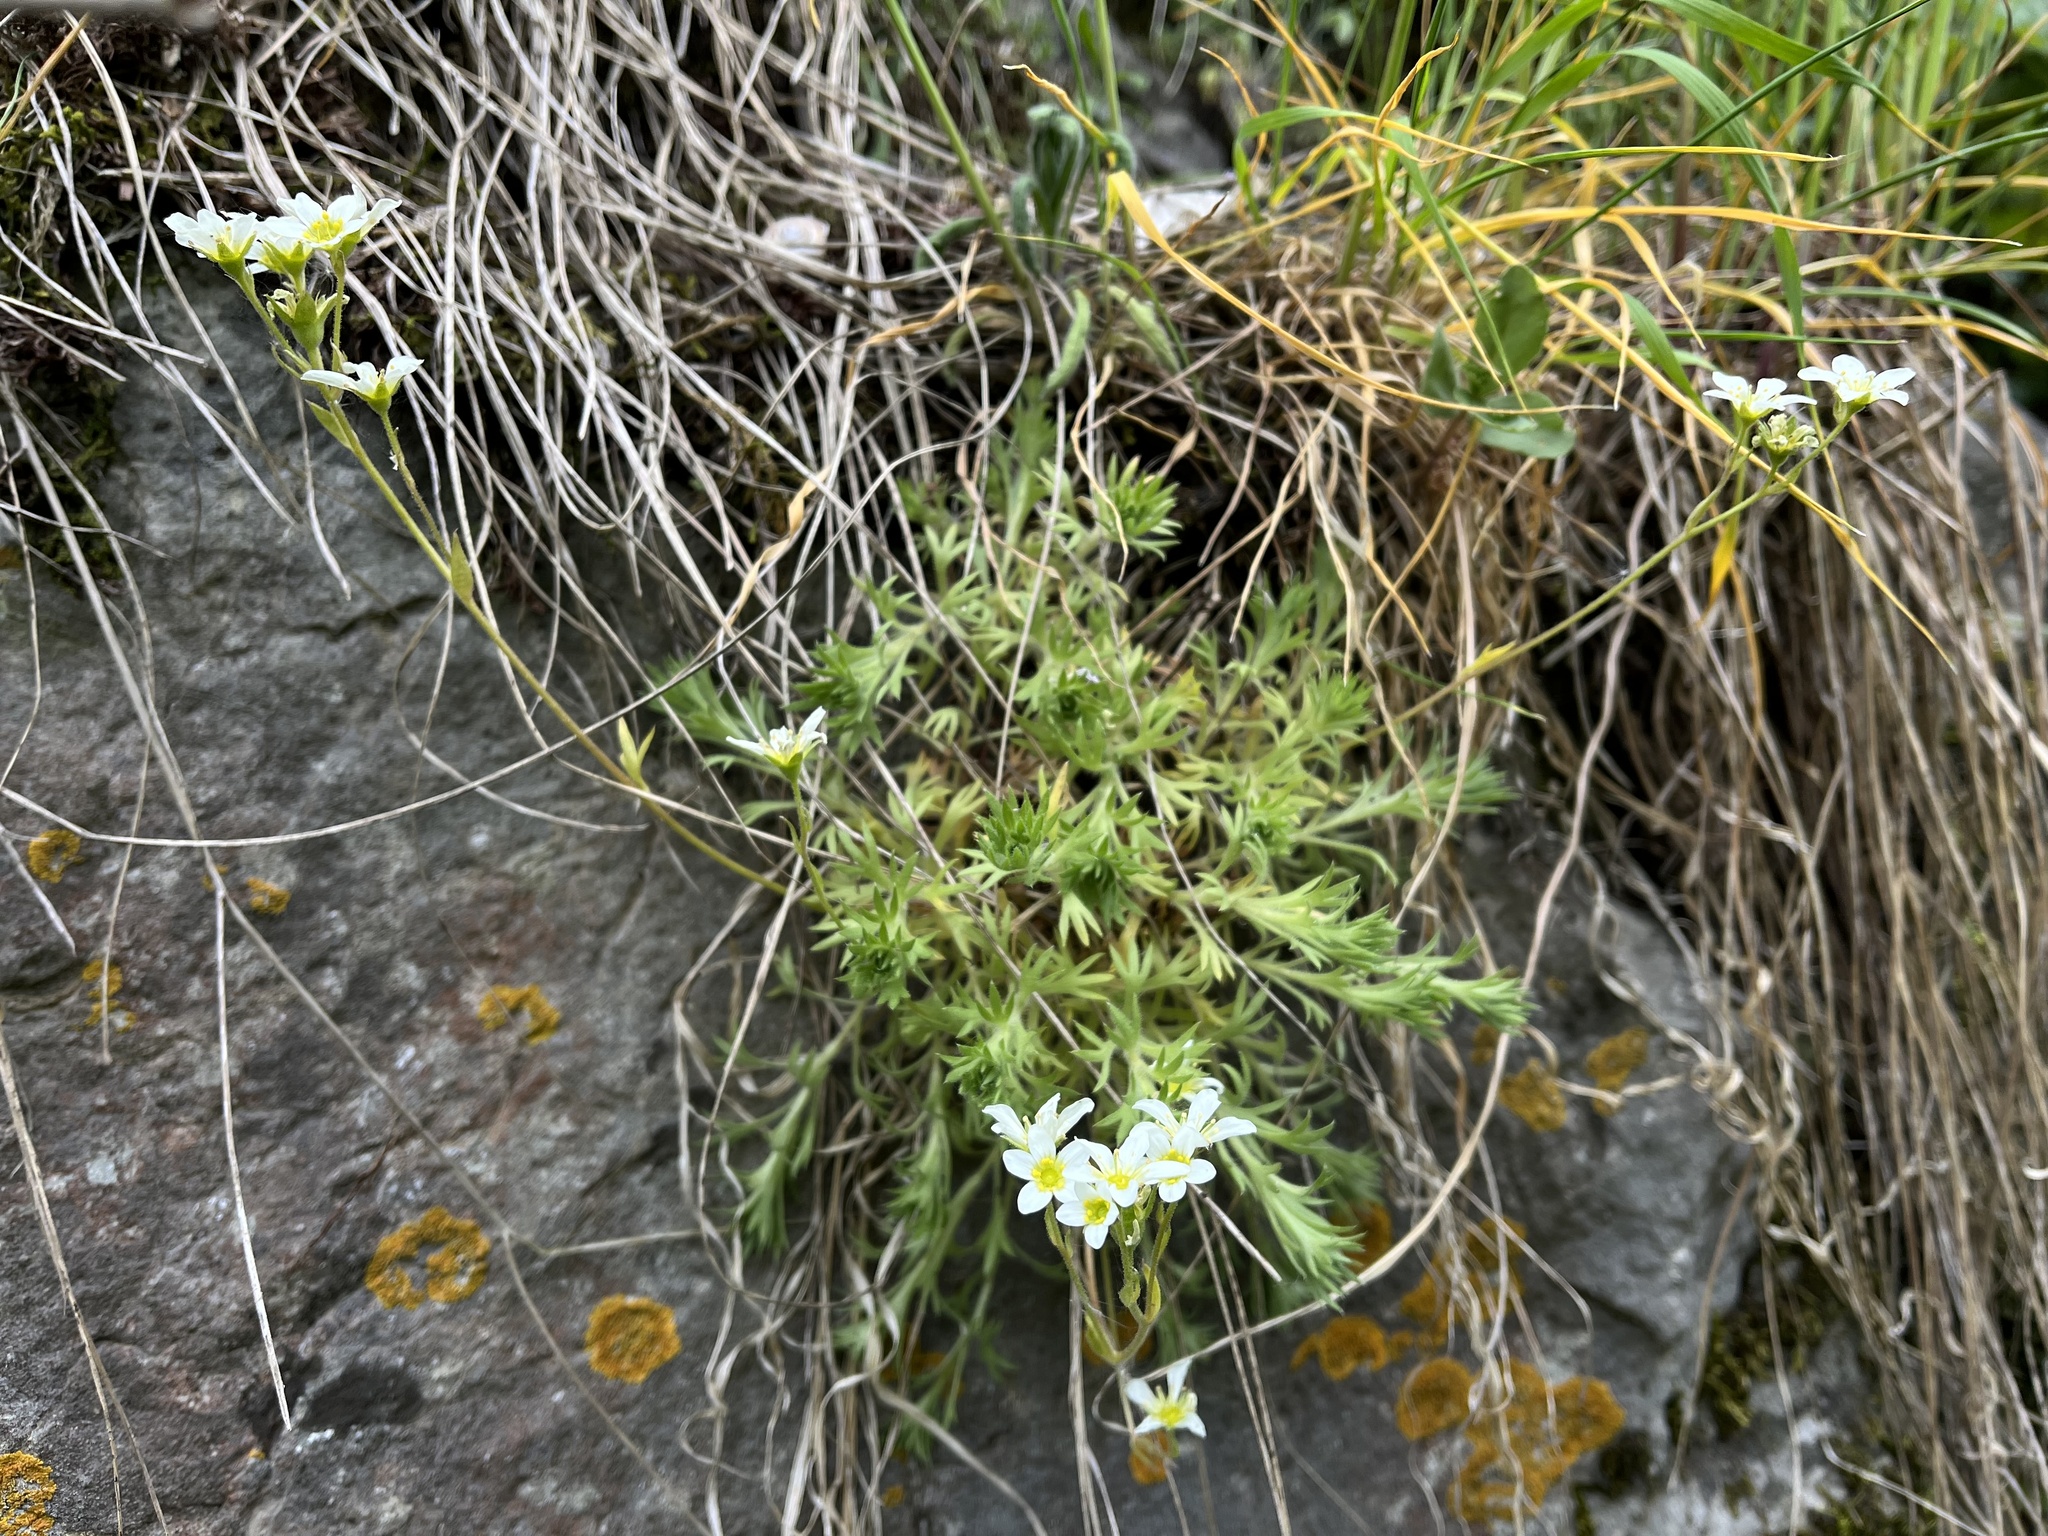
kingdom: Plantae
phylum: Tracheophyta
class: Magnoliopsida
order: Saxifragales
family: Saxifragaceae
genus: Saxifraga
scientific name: Saxifraga rosacea
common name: Irish saxifrage
